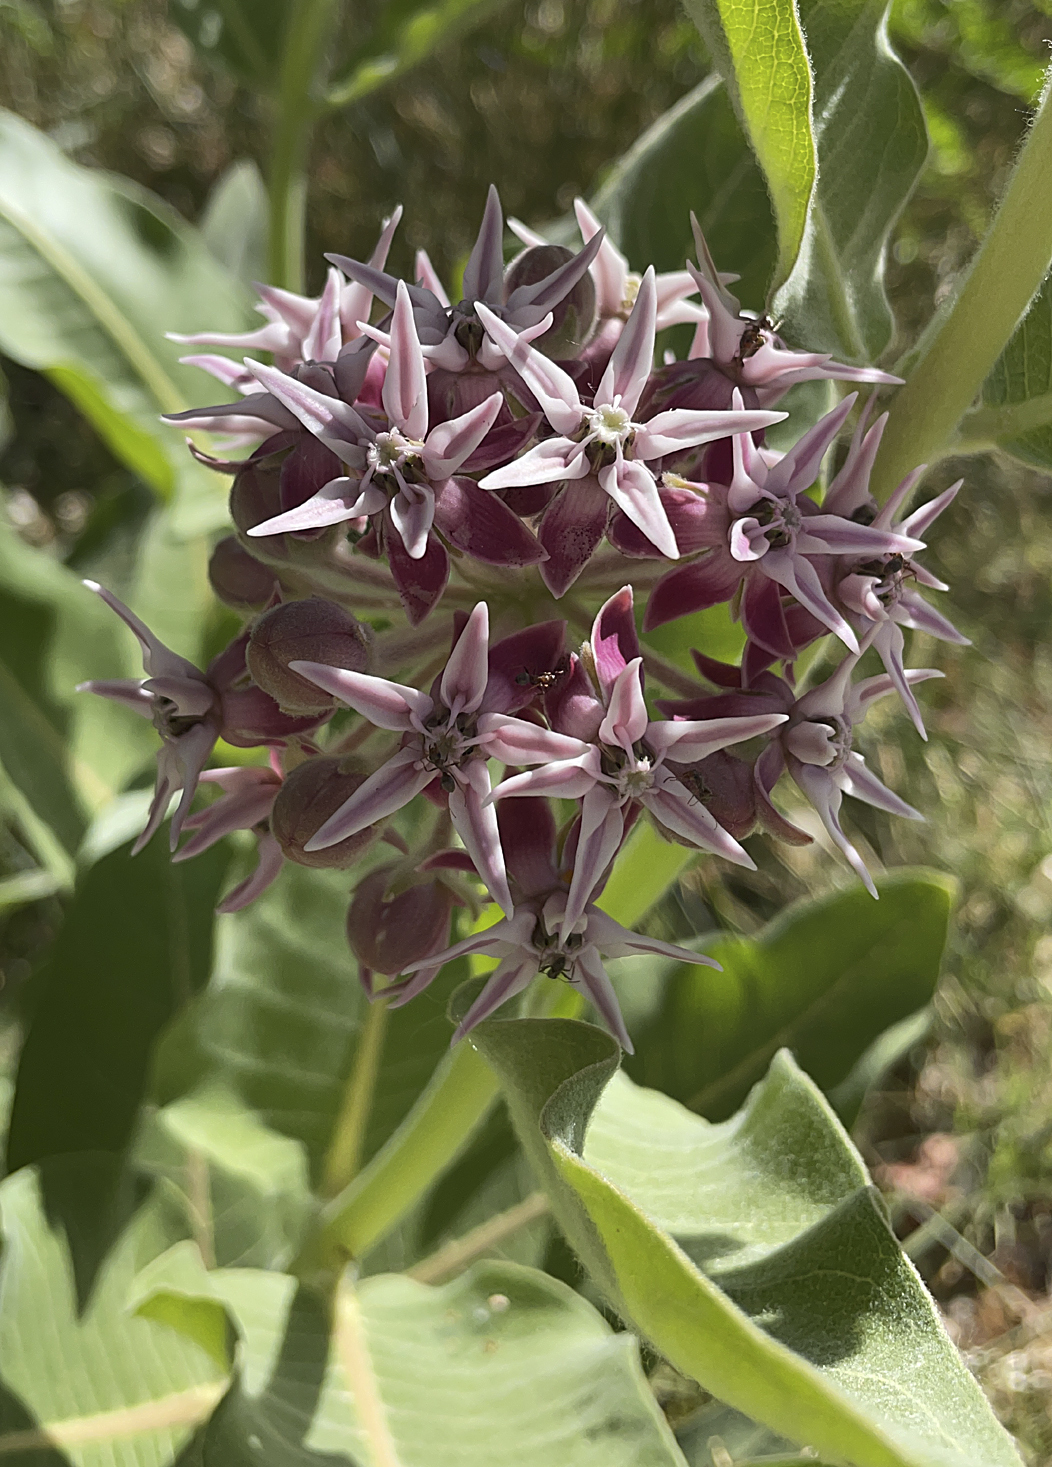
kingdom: Plantae
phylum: Tracheophyta
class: Magnoliopsida
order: Gentianales
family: Apocynaceae
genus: Asclepias
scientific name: Asclepias speciosa
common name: Showy milkweed
